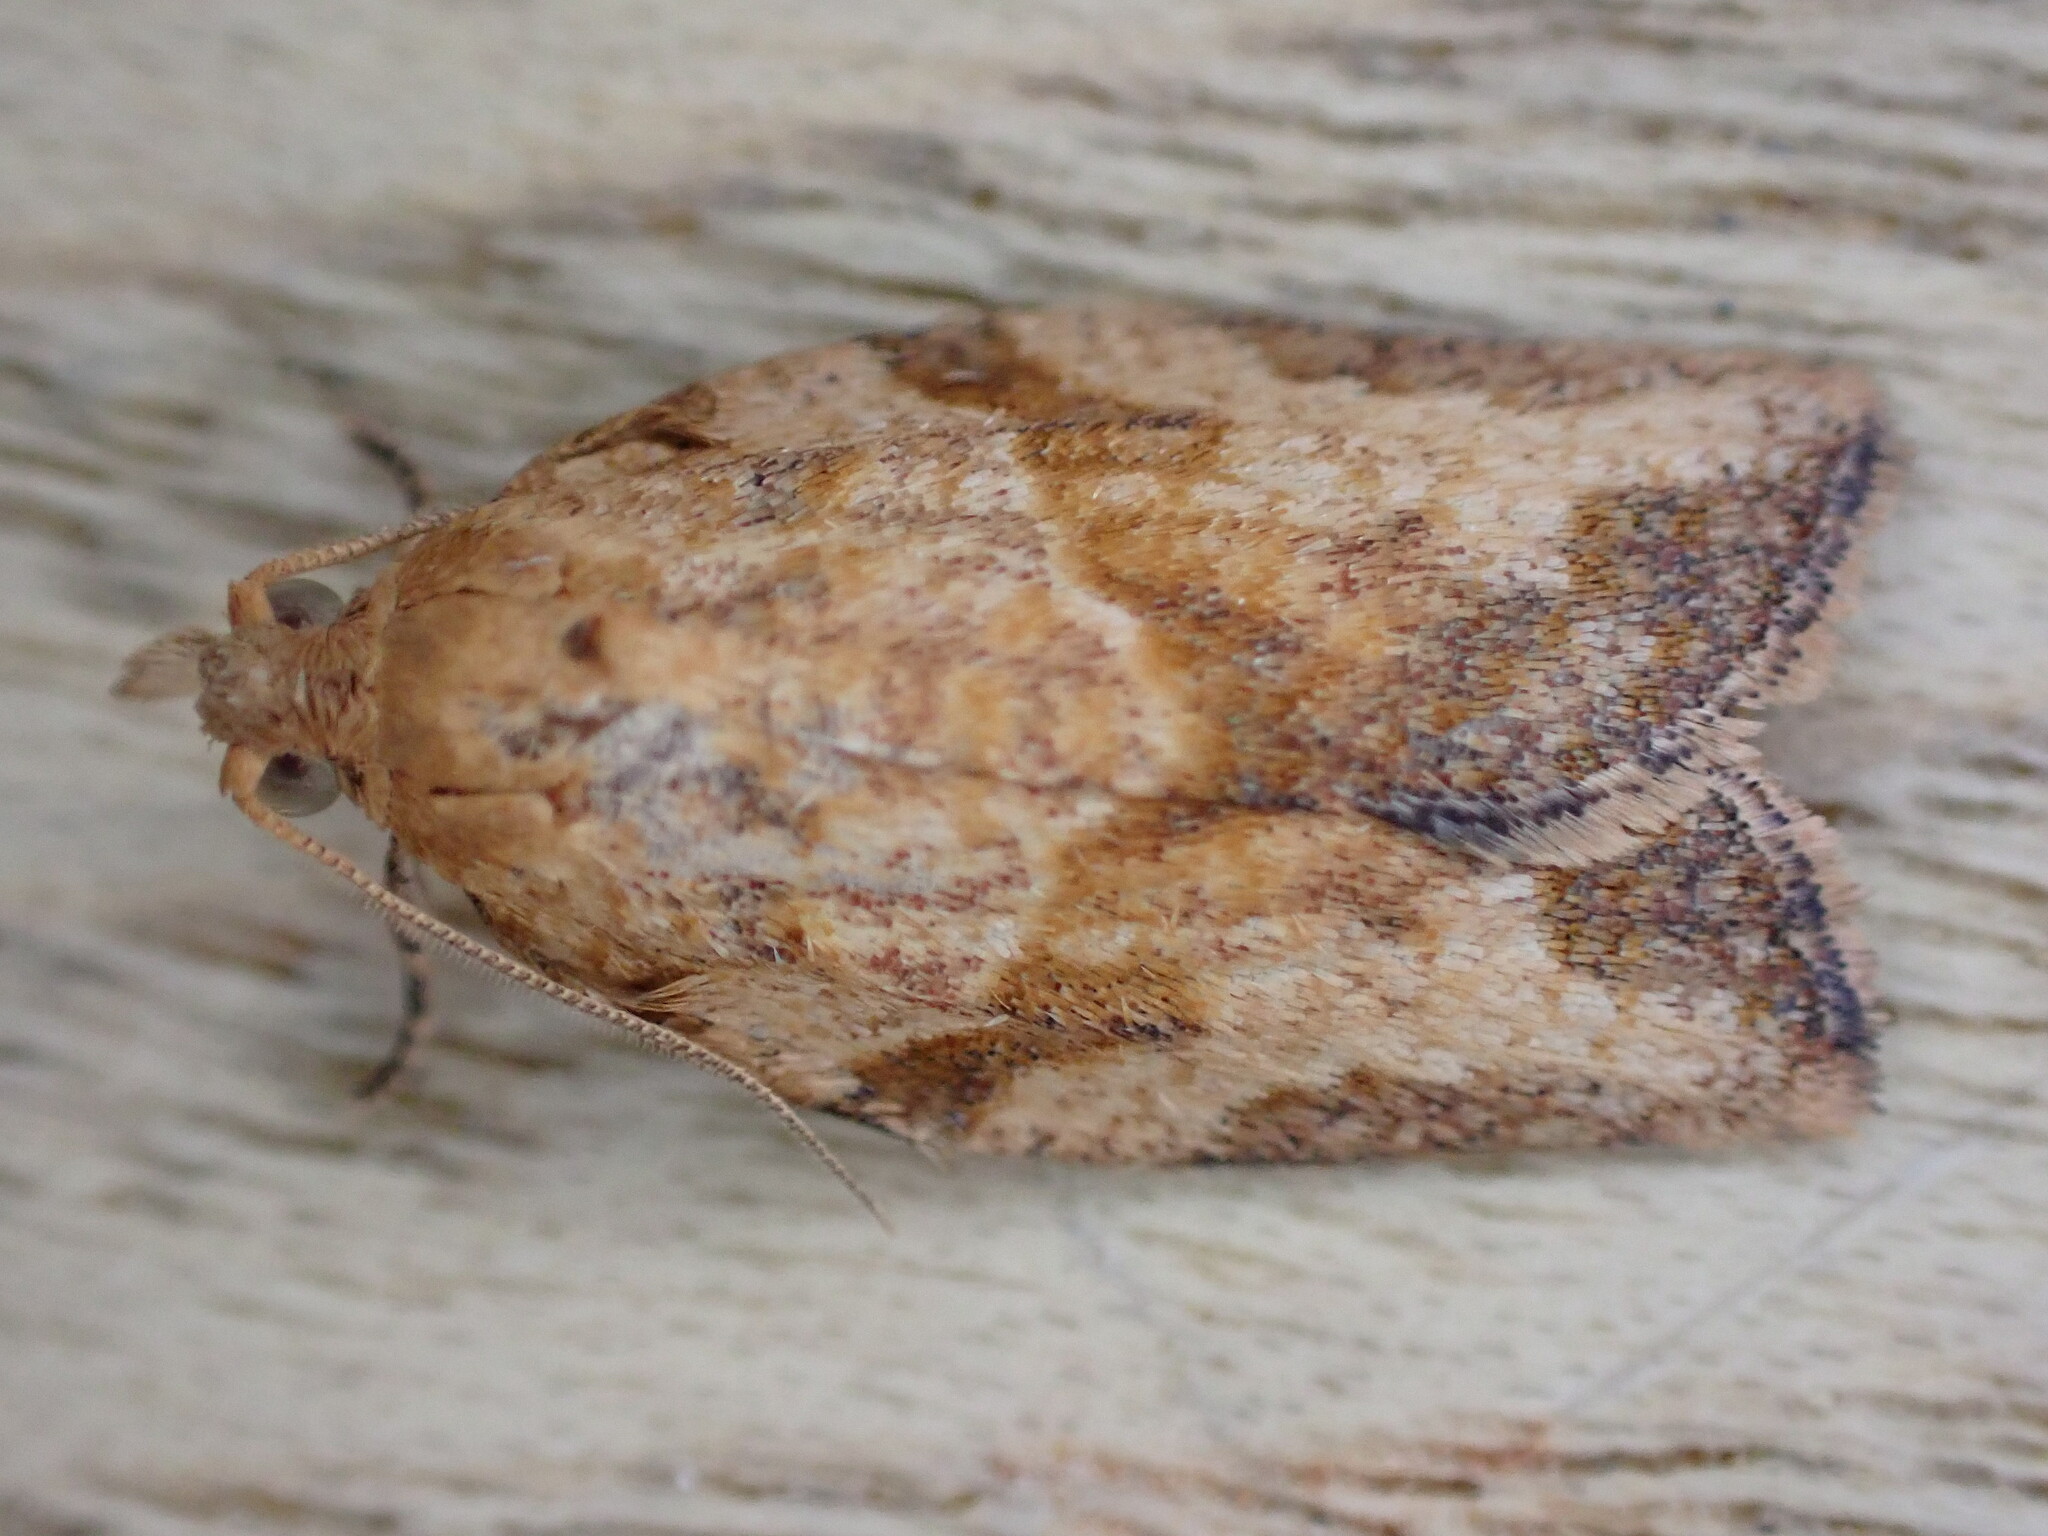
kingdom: Animalia
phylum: Arthropoda
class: Insecta
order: Lepidoptera
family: Tortricidae
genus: Epiphyas
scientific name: Epiphyas postvittana
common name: Light brown apple moth
